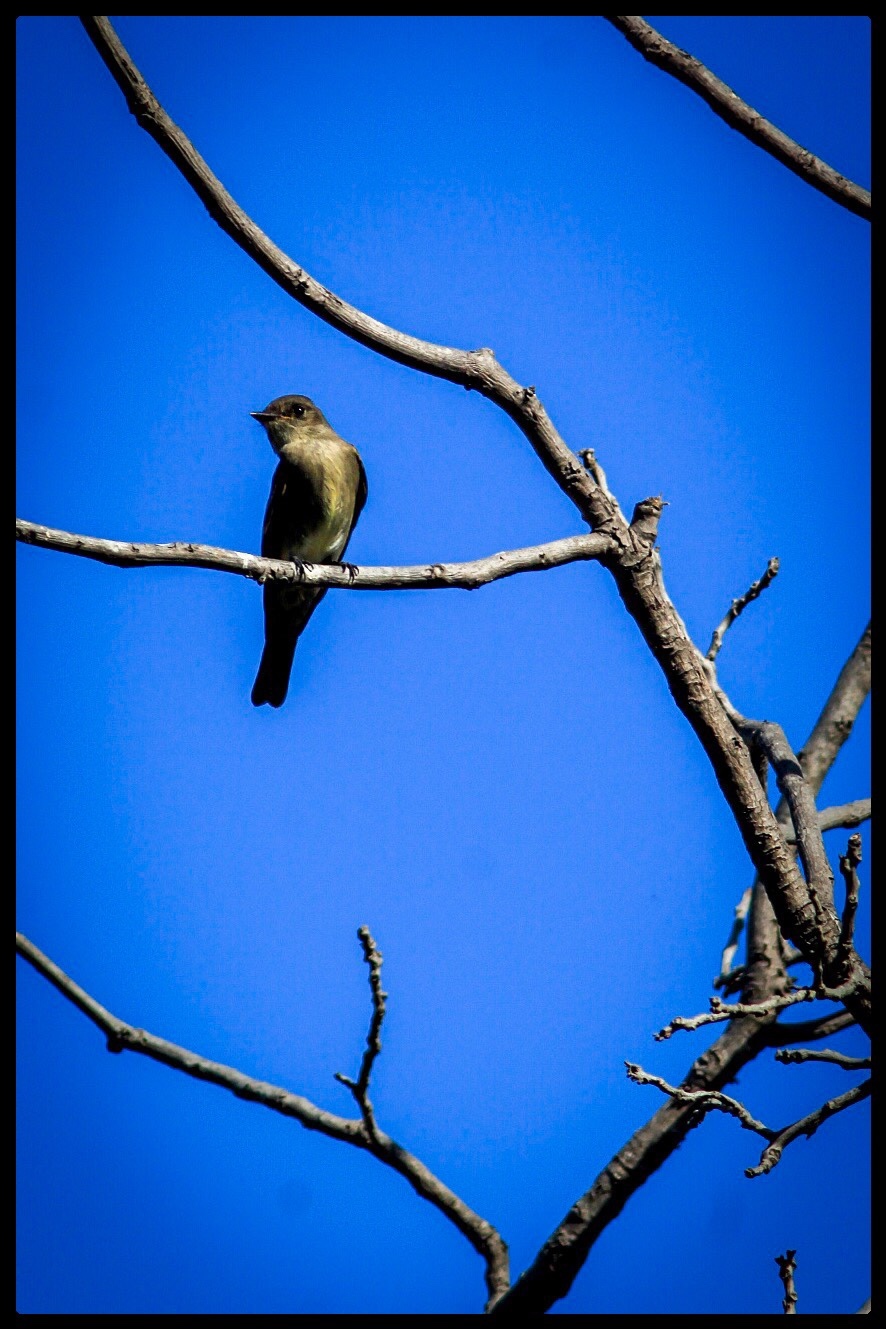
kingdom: Animalia
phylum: Chordata
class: Aves
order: Passeriformes
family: Tyrannidae
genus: Contopus
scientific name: Contopus sordidulus
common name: Western wood-pewee
